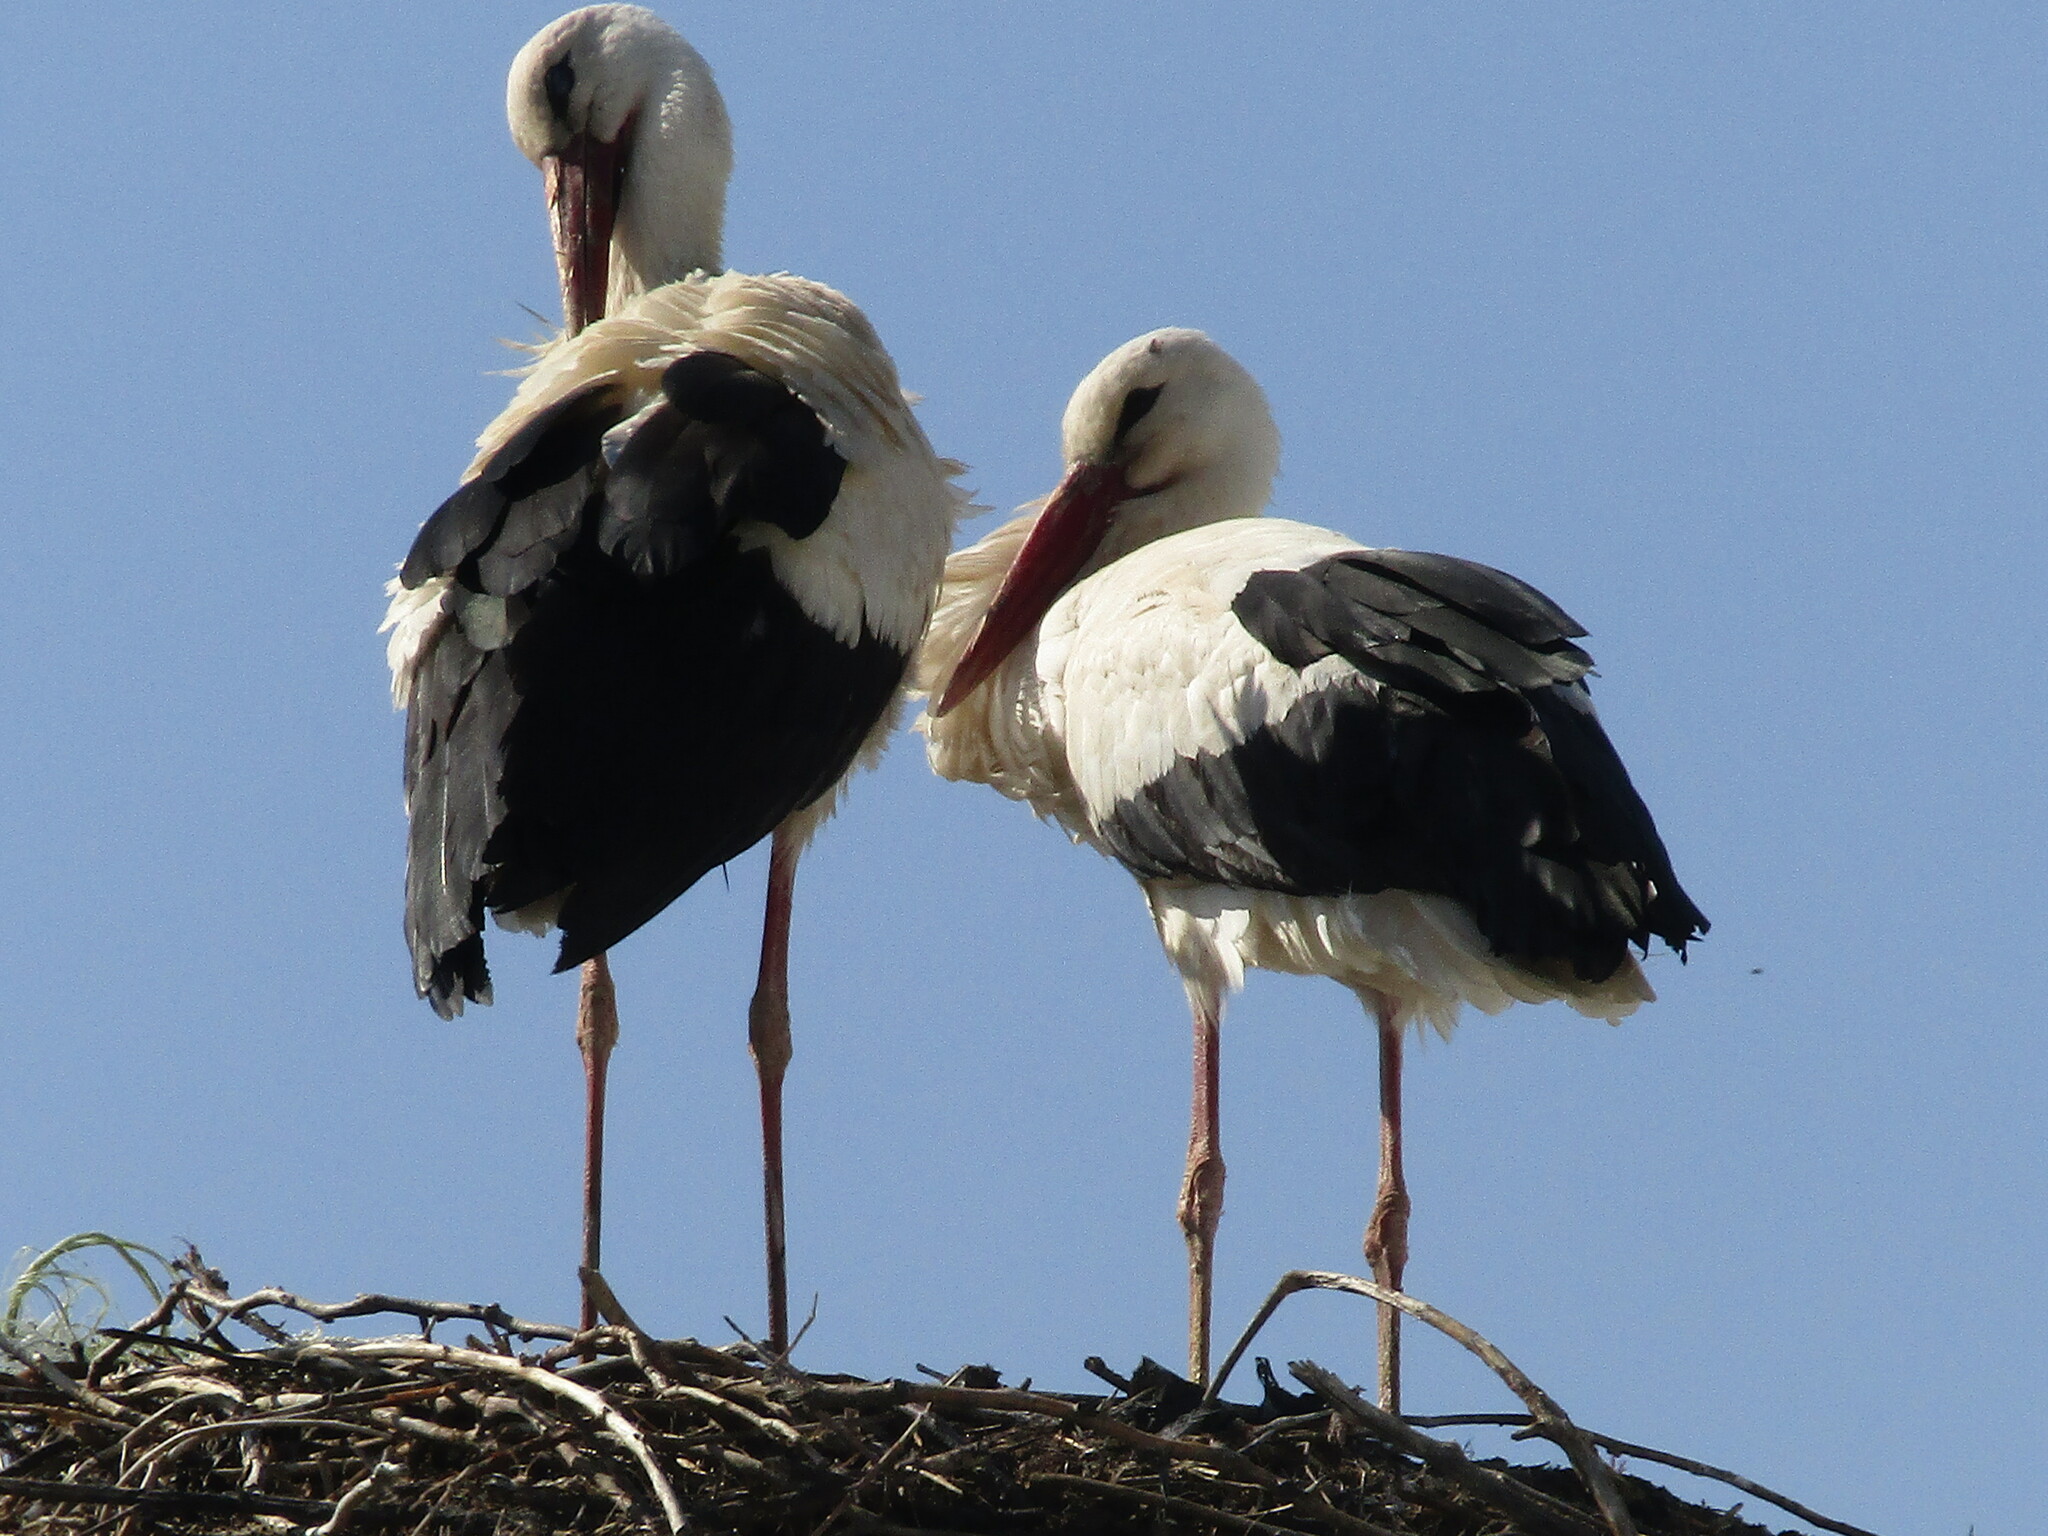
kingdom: Animalia
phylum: Chordata
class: Aves
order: Ciconiiformes
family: Ciconiidae
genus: Ciconia
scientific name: Ciconia ciconia
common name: White stork
